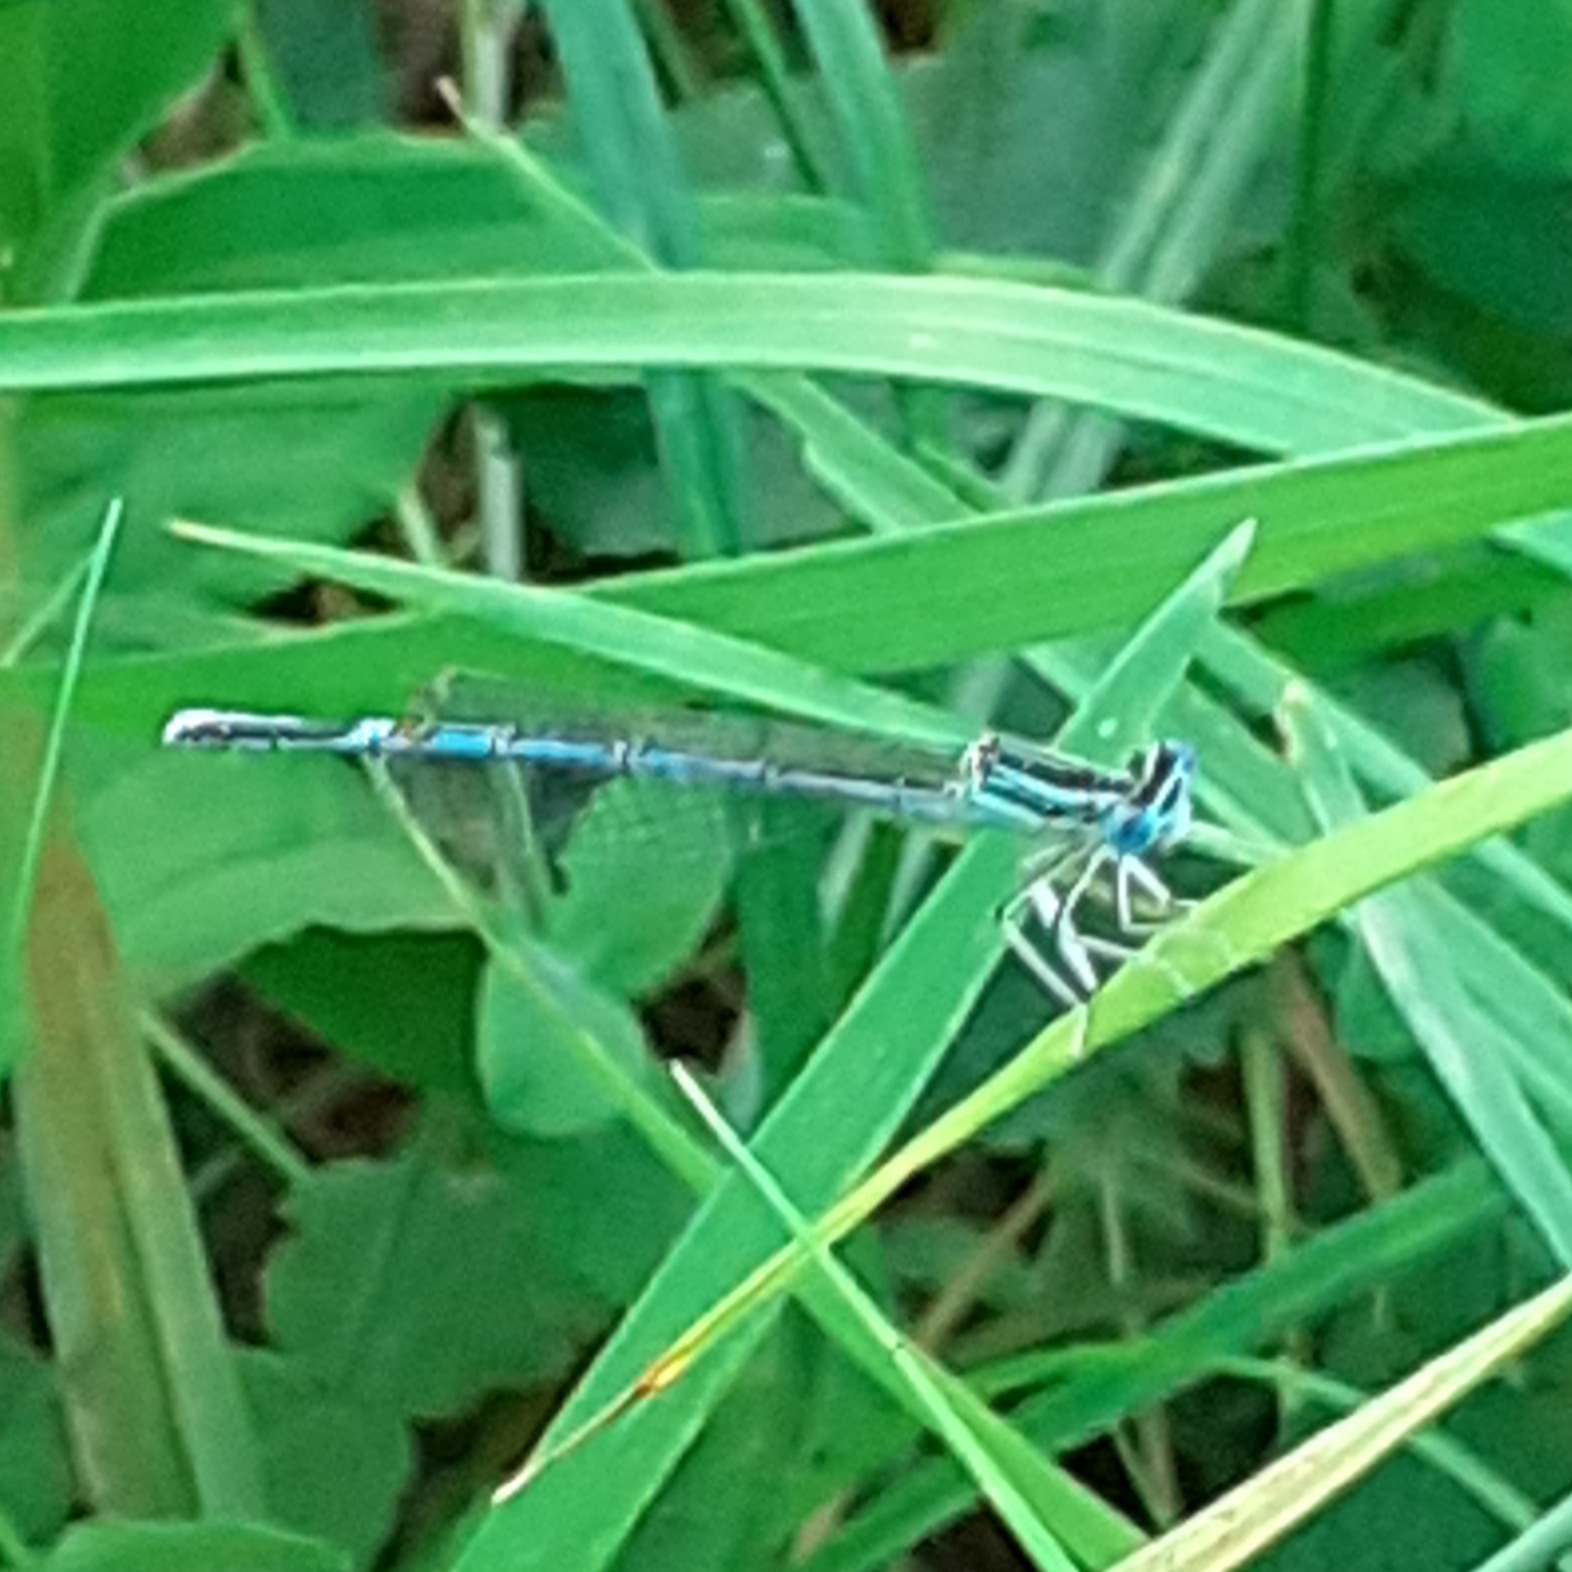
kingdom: Animalia
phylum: Arthropoda
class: Insecta
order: Odonata
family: Platycnemididae
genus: Platycnemis
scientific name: Platycnemis pennipes
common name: White-legged damselfly
